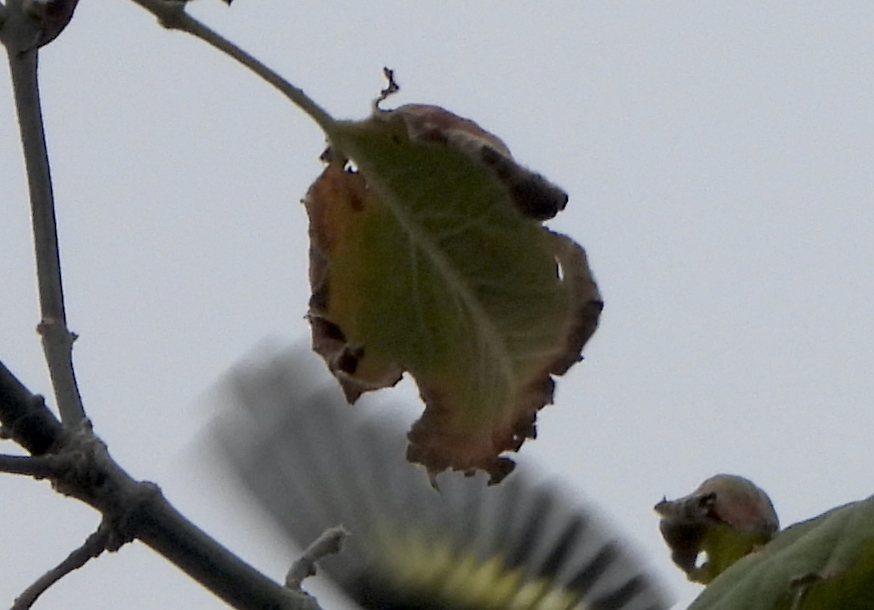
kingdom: Animalia
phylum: Chordata
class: Aves
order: Passeriformes
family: Fringillidae
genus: Spinus
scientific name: Spinus pinus
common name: Pine siskin
